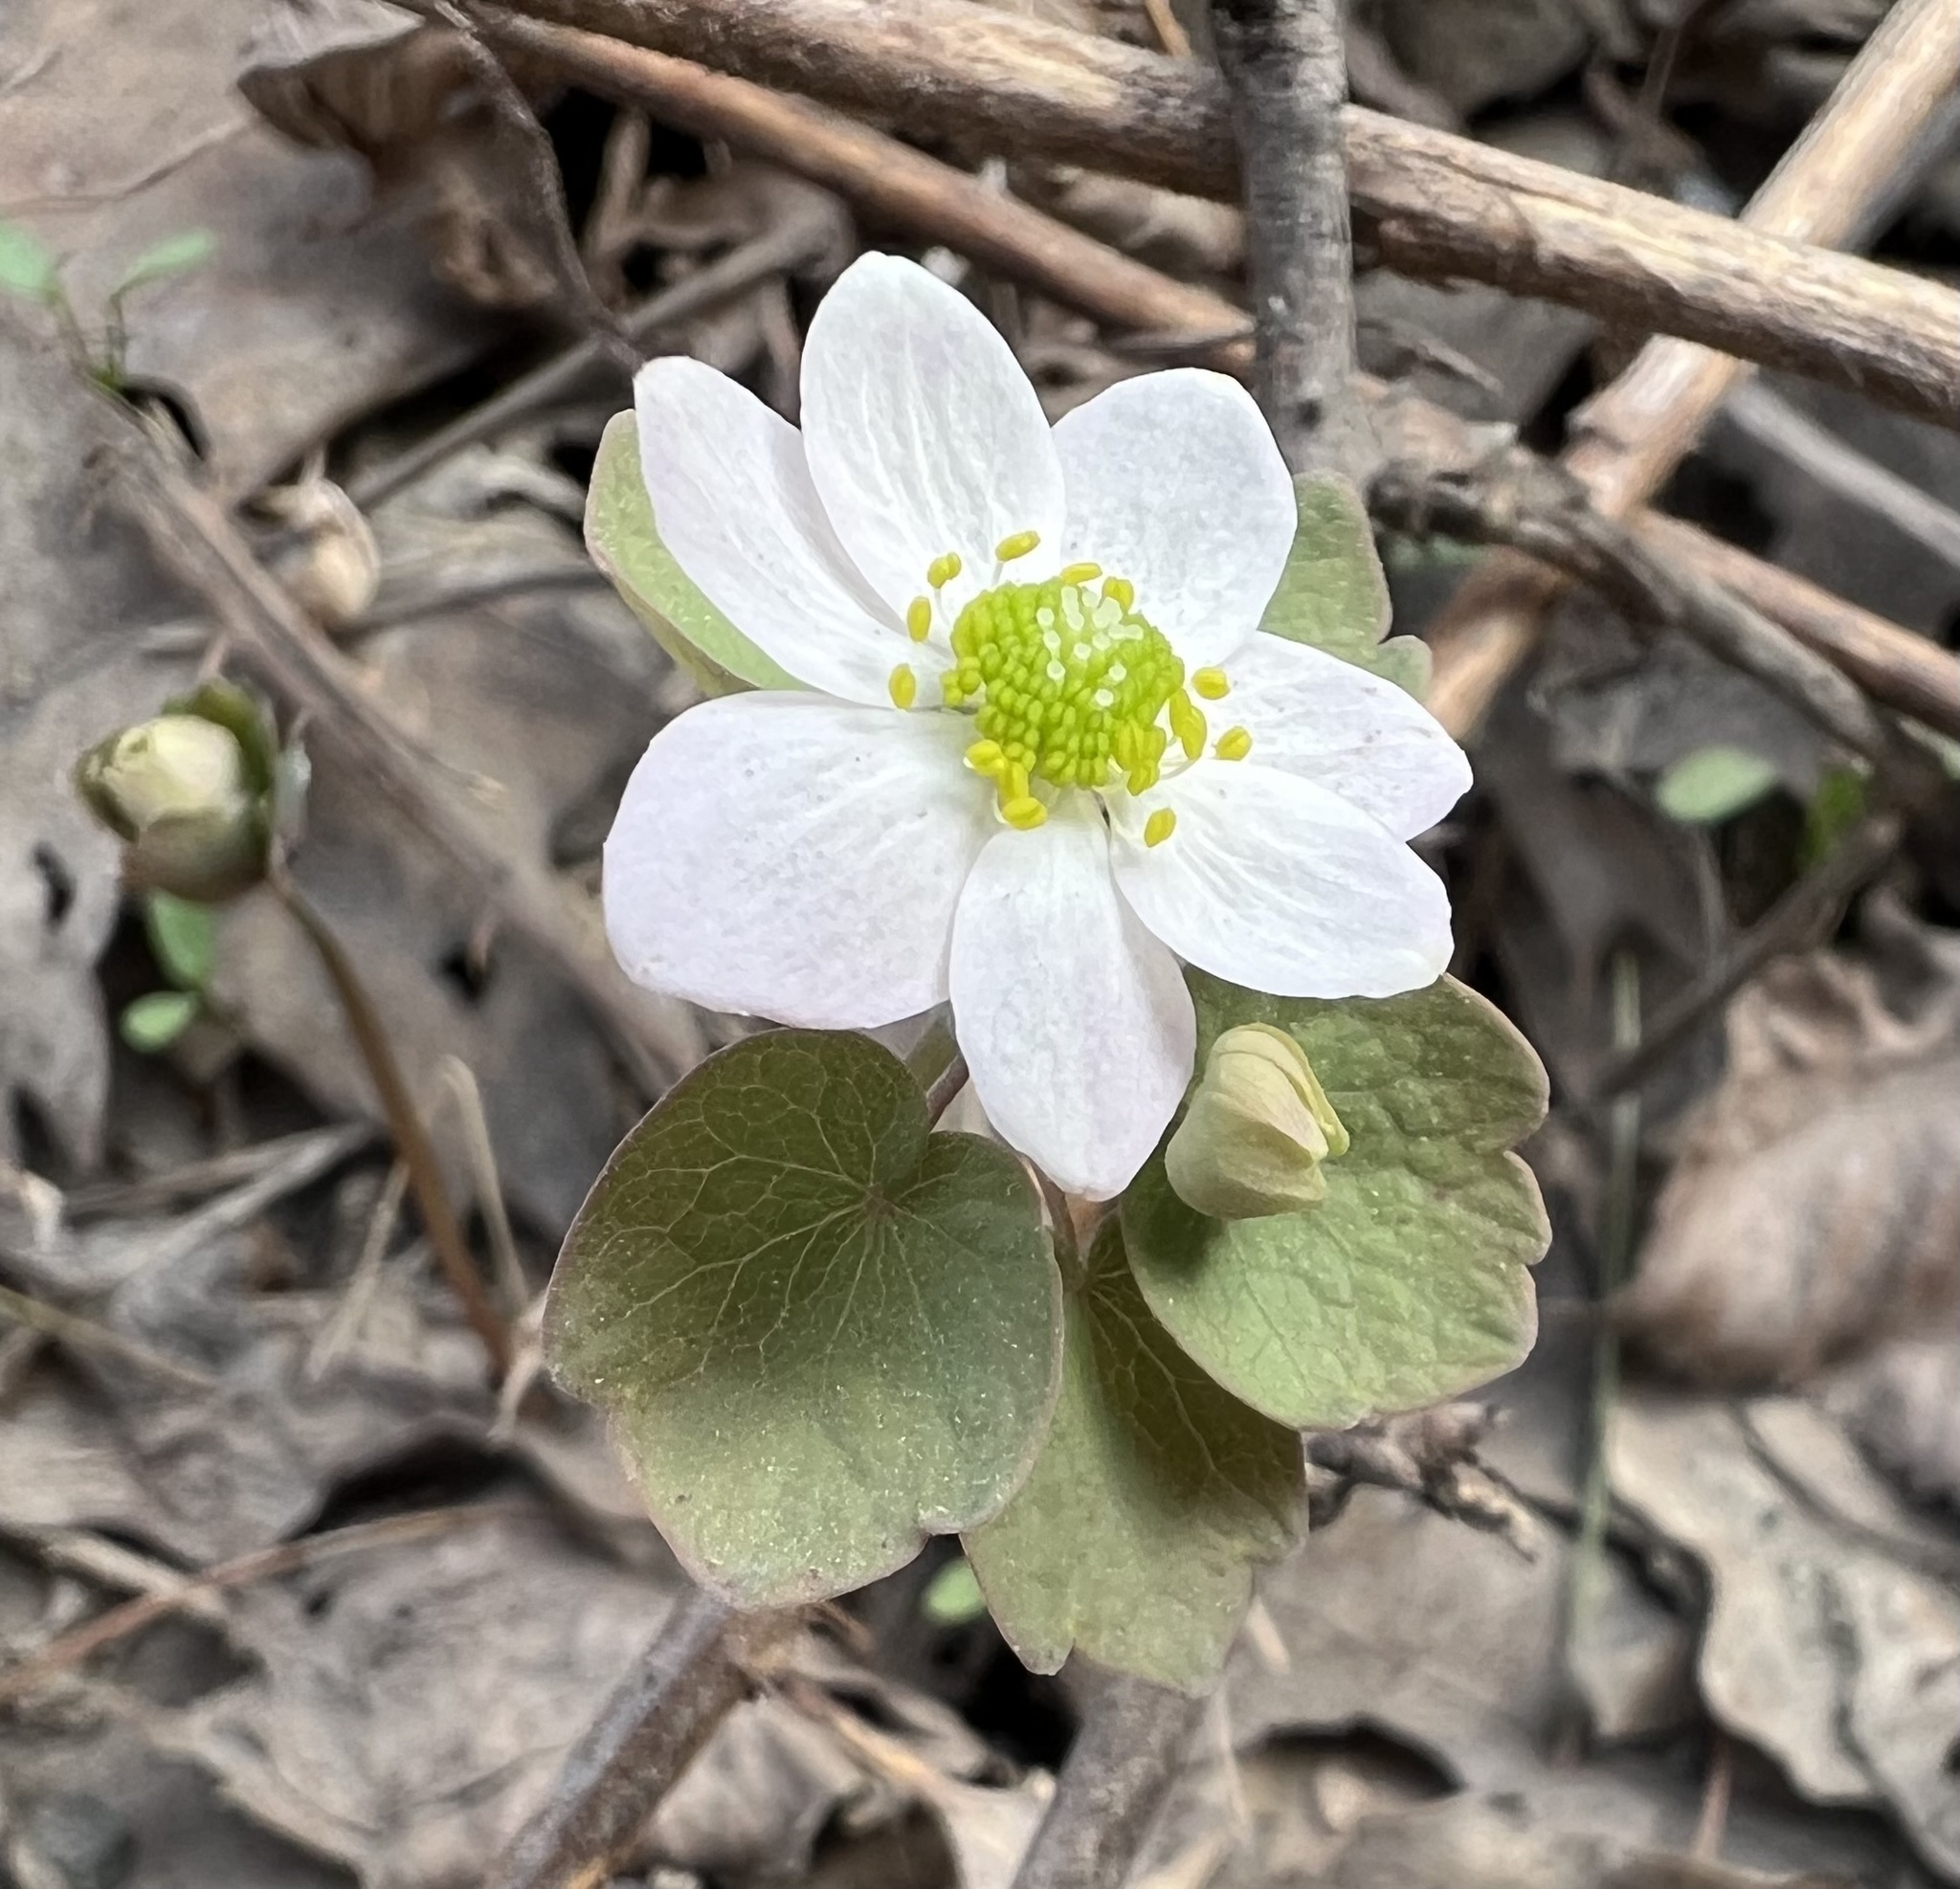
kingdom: Plantae
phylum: Tracheophyta
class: Magnoliopsida
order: Ranunculales
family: Ranunculaceae
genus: Thalictrum
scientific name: Thalictrum thalictroides
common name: Rue-anemone
